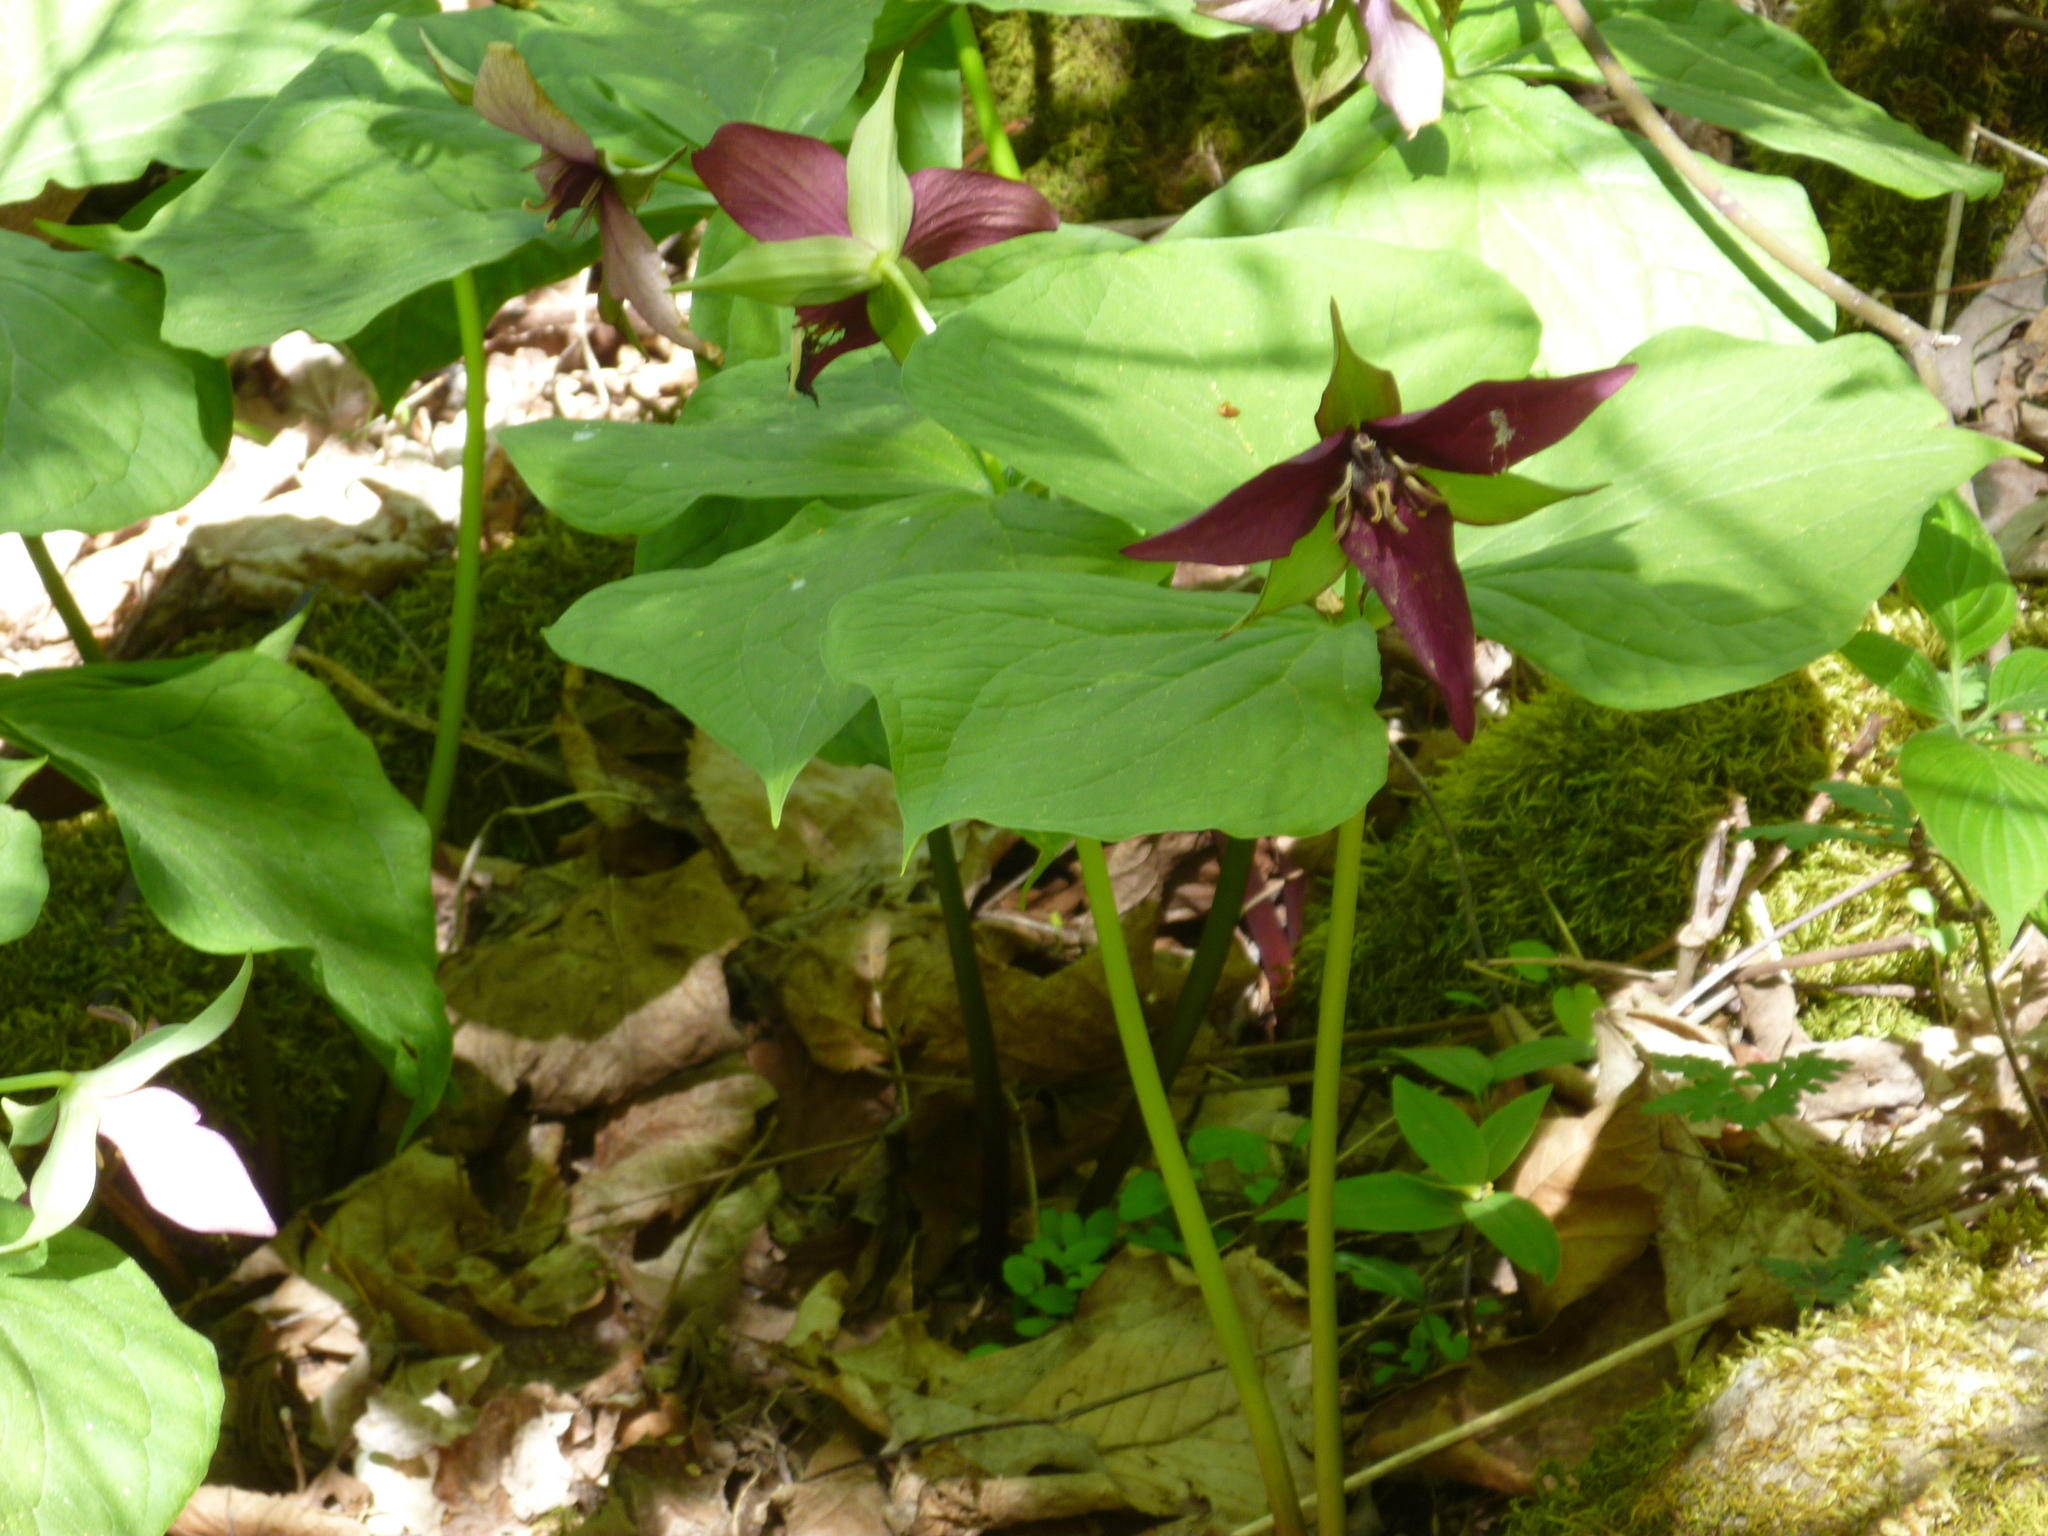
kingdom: Plantae
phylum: Tracheophyta
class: Liliopsida
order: Liliales
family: Melanthiaceae
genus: Trillium
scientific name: Trillium erectum
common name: Purple trillium
